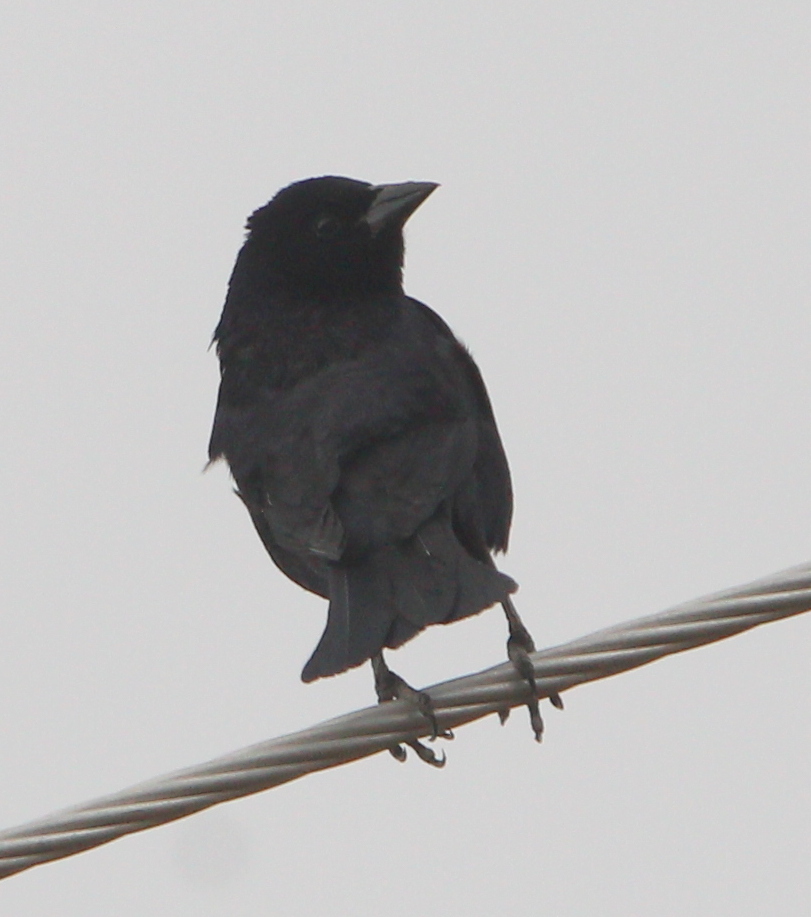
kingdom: Animalia
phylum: Chordata
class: Aves
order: Passeriformes
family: Icteridae
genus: Molothrus
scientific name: Molothrus bonariensis
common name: Shiny cowbird
